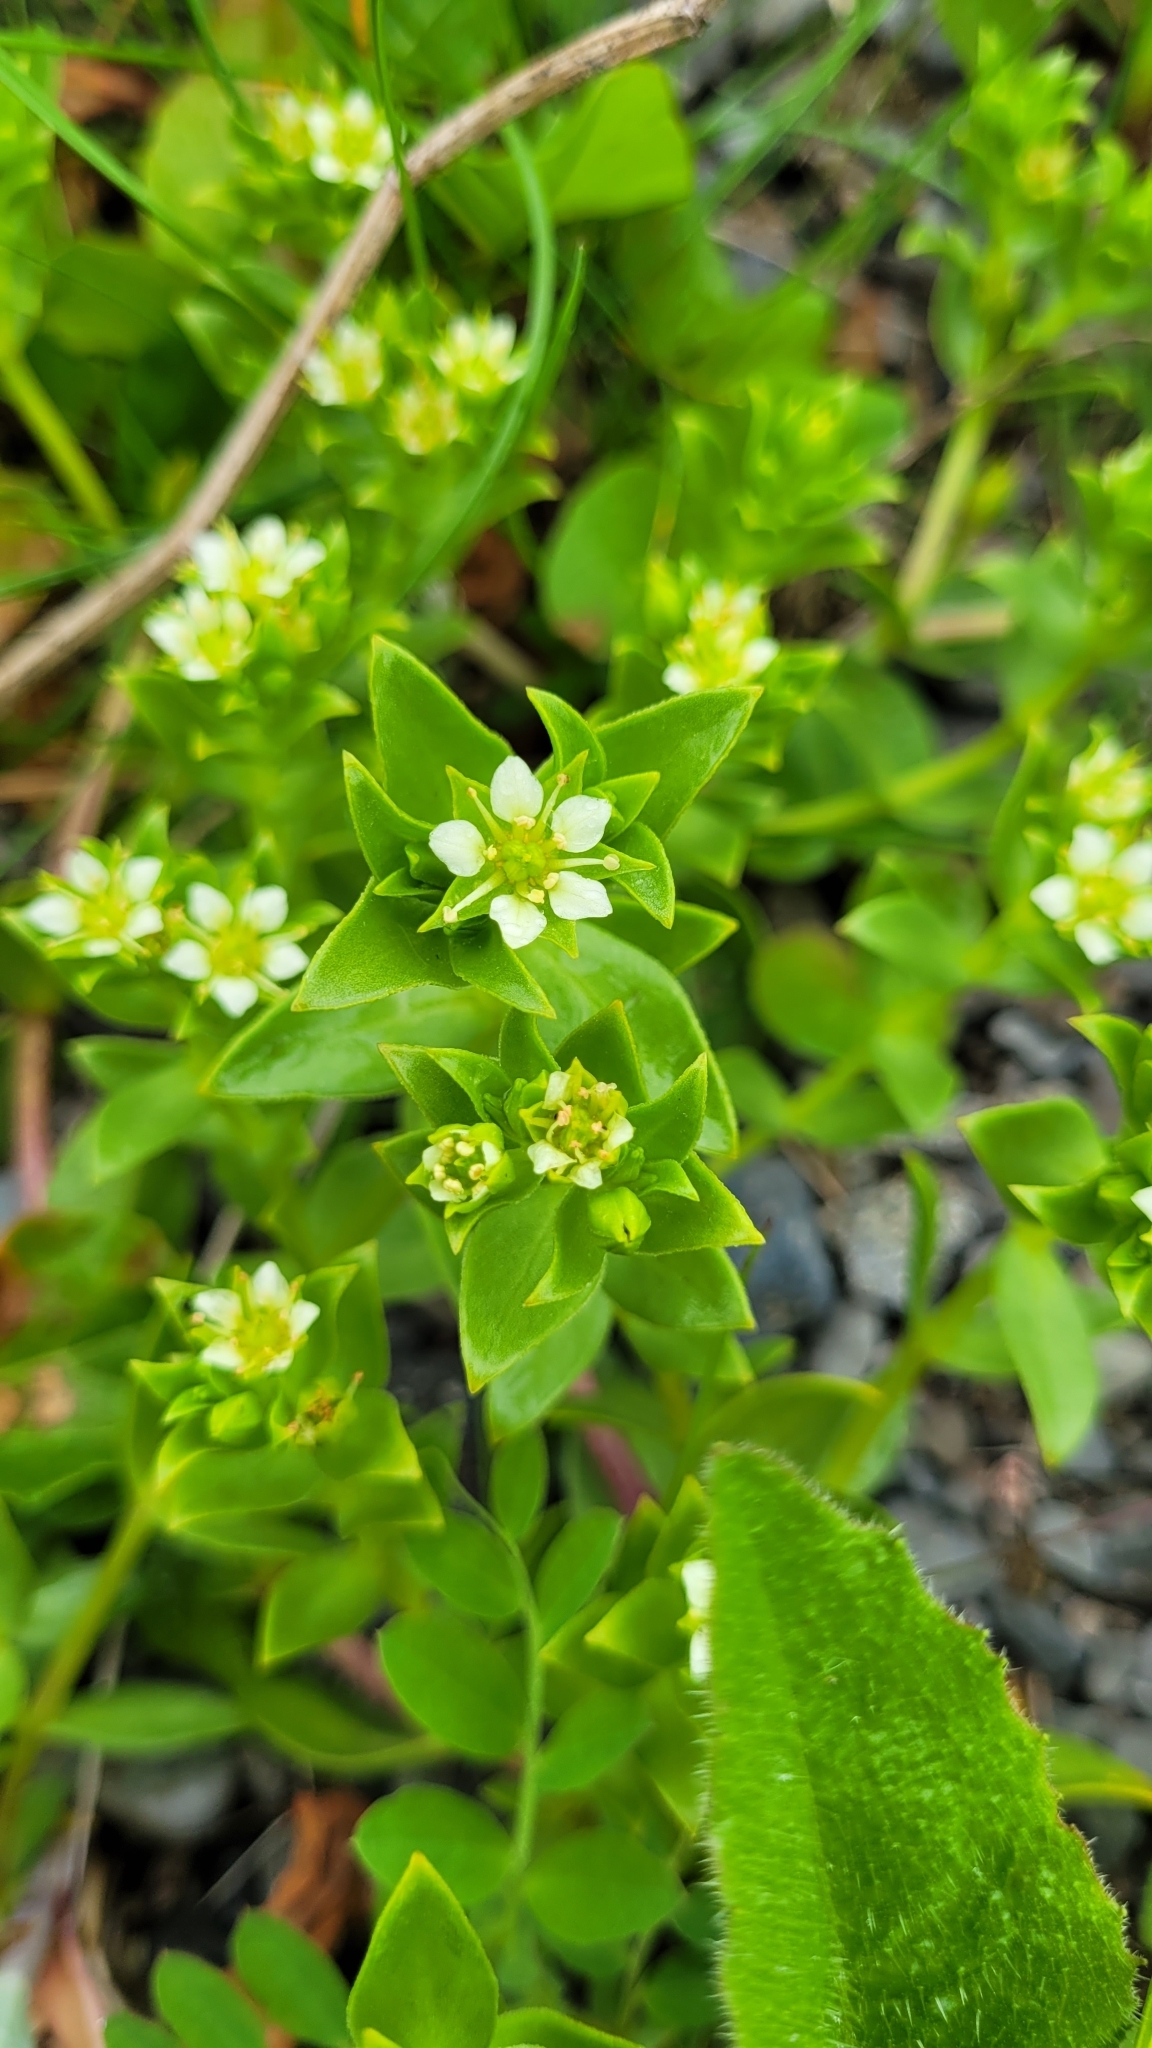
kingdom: Plantae
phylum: Tracheophyta
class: Magnoliopsida
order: Caryophyllales
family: Caryophyllaceae
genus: Honckenya
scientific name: Honckenya peploides
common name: Sea sandwort
